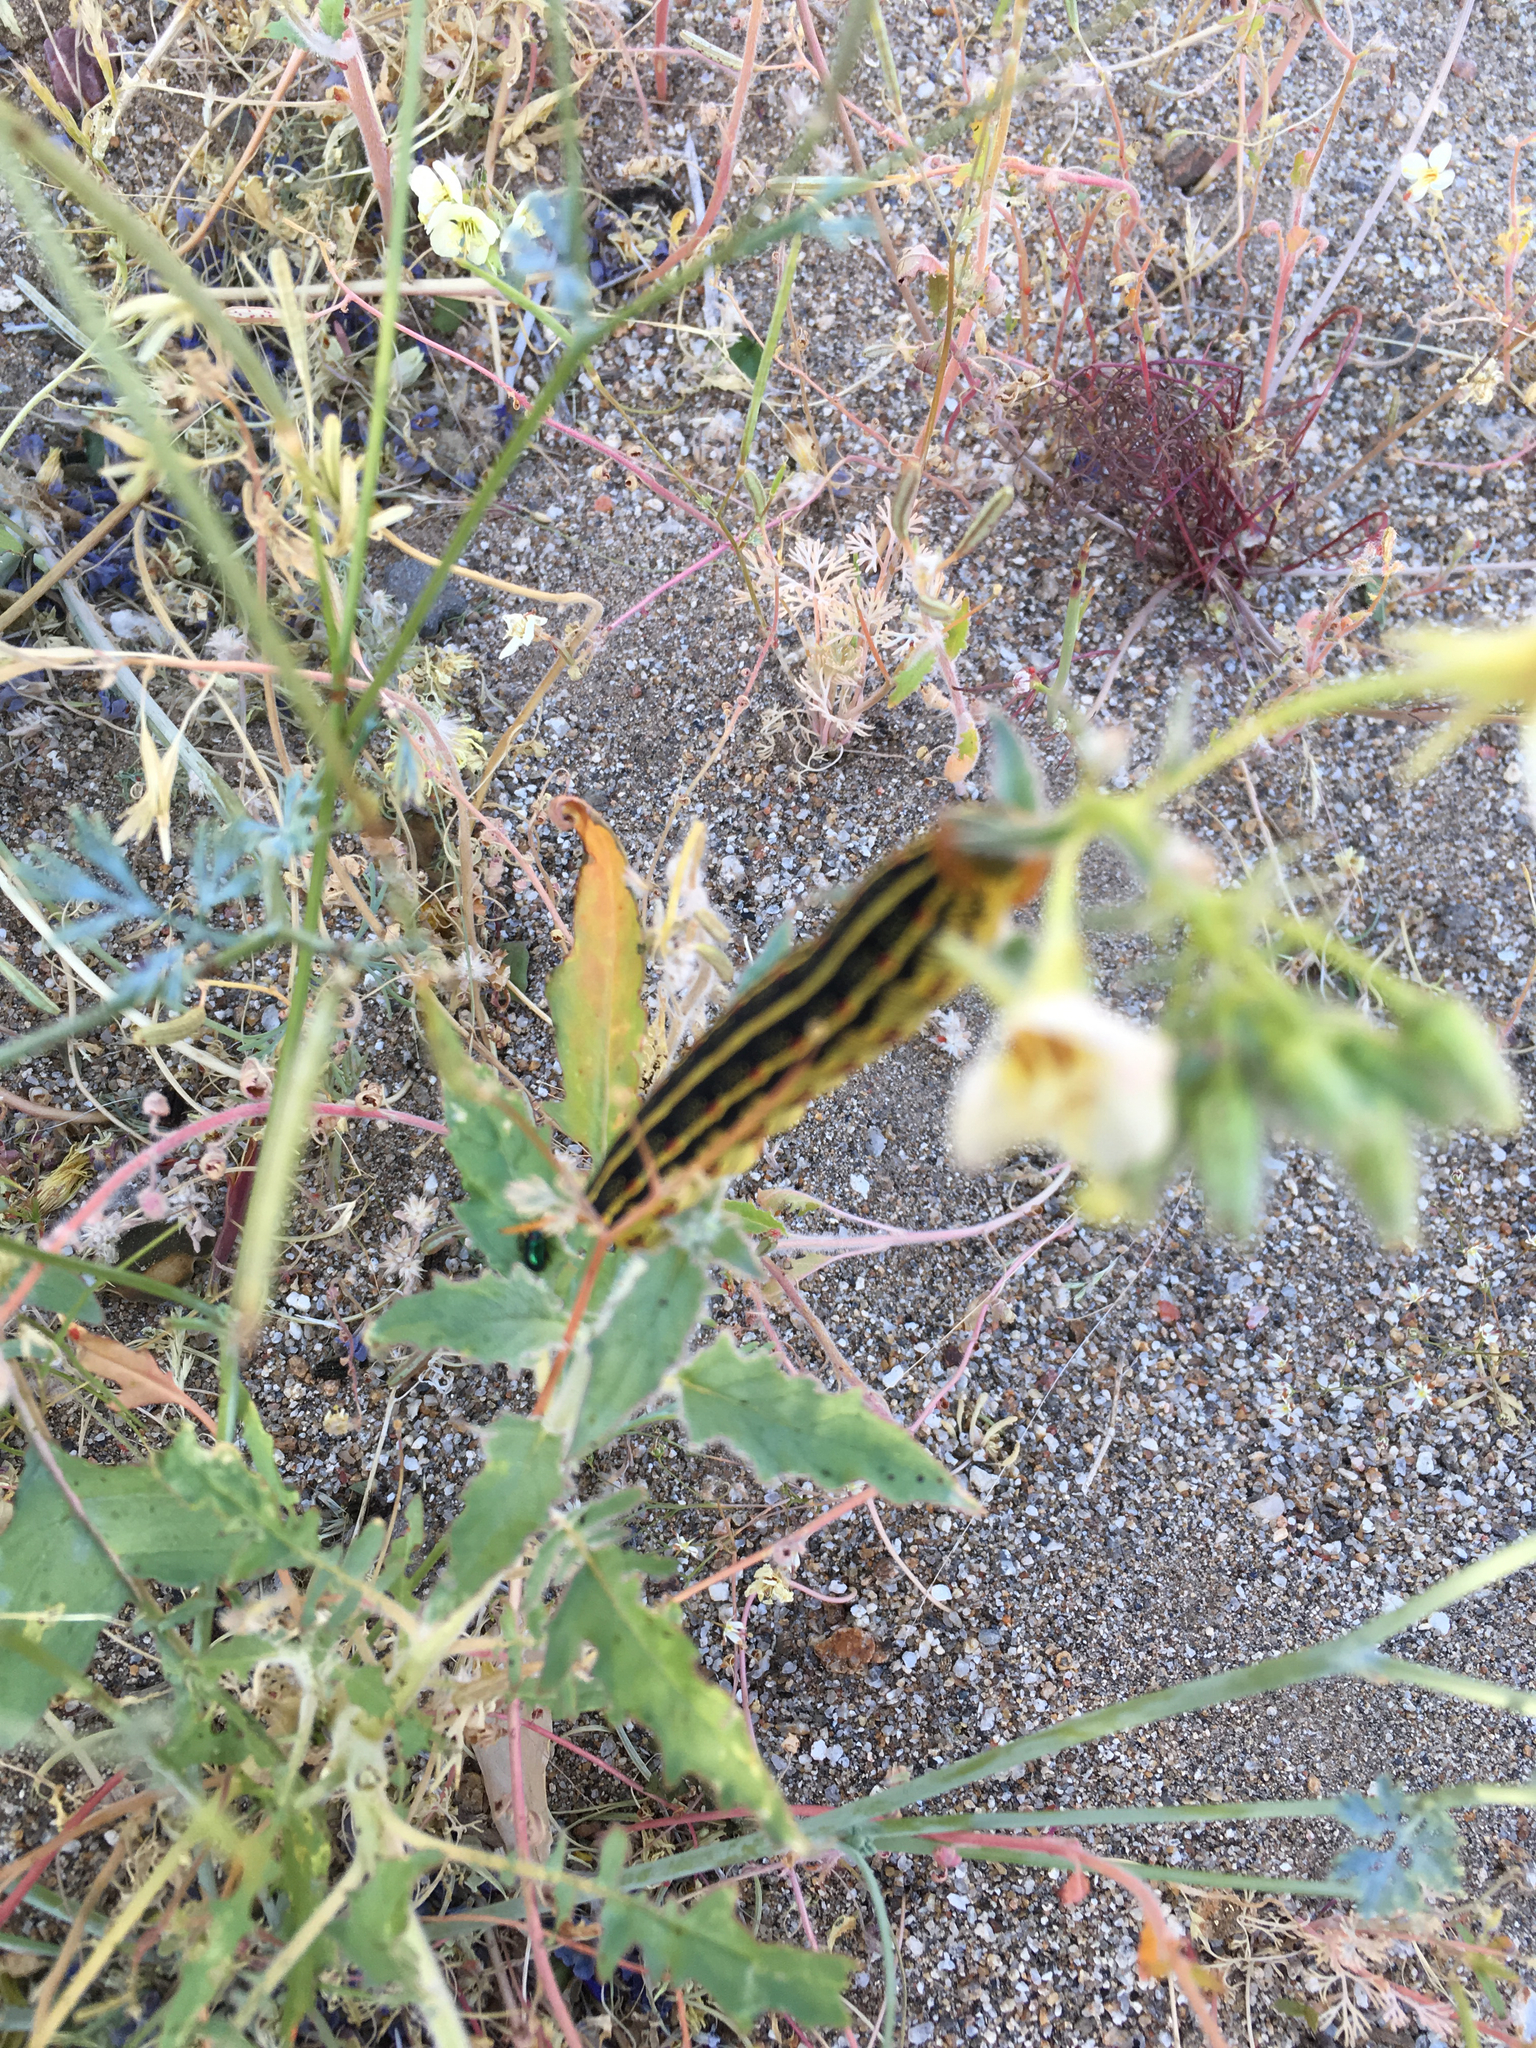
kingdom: Animalia
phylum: Arthropoda
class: Insecta
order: Lepidoptera
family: Sphingidae
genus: Hyles
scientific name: Hyles lineata
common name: White-lined sphinx
